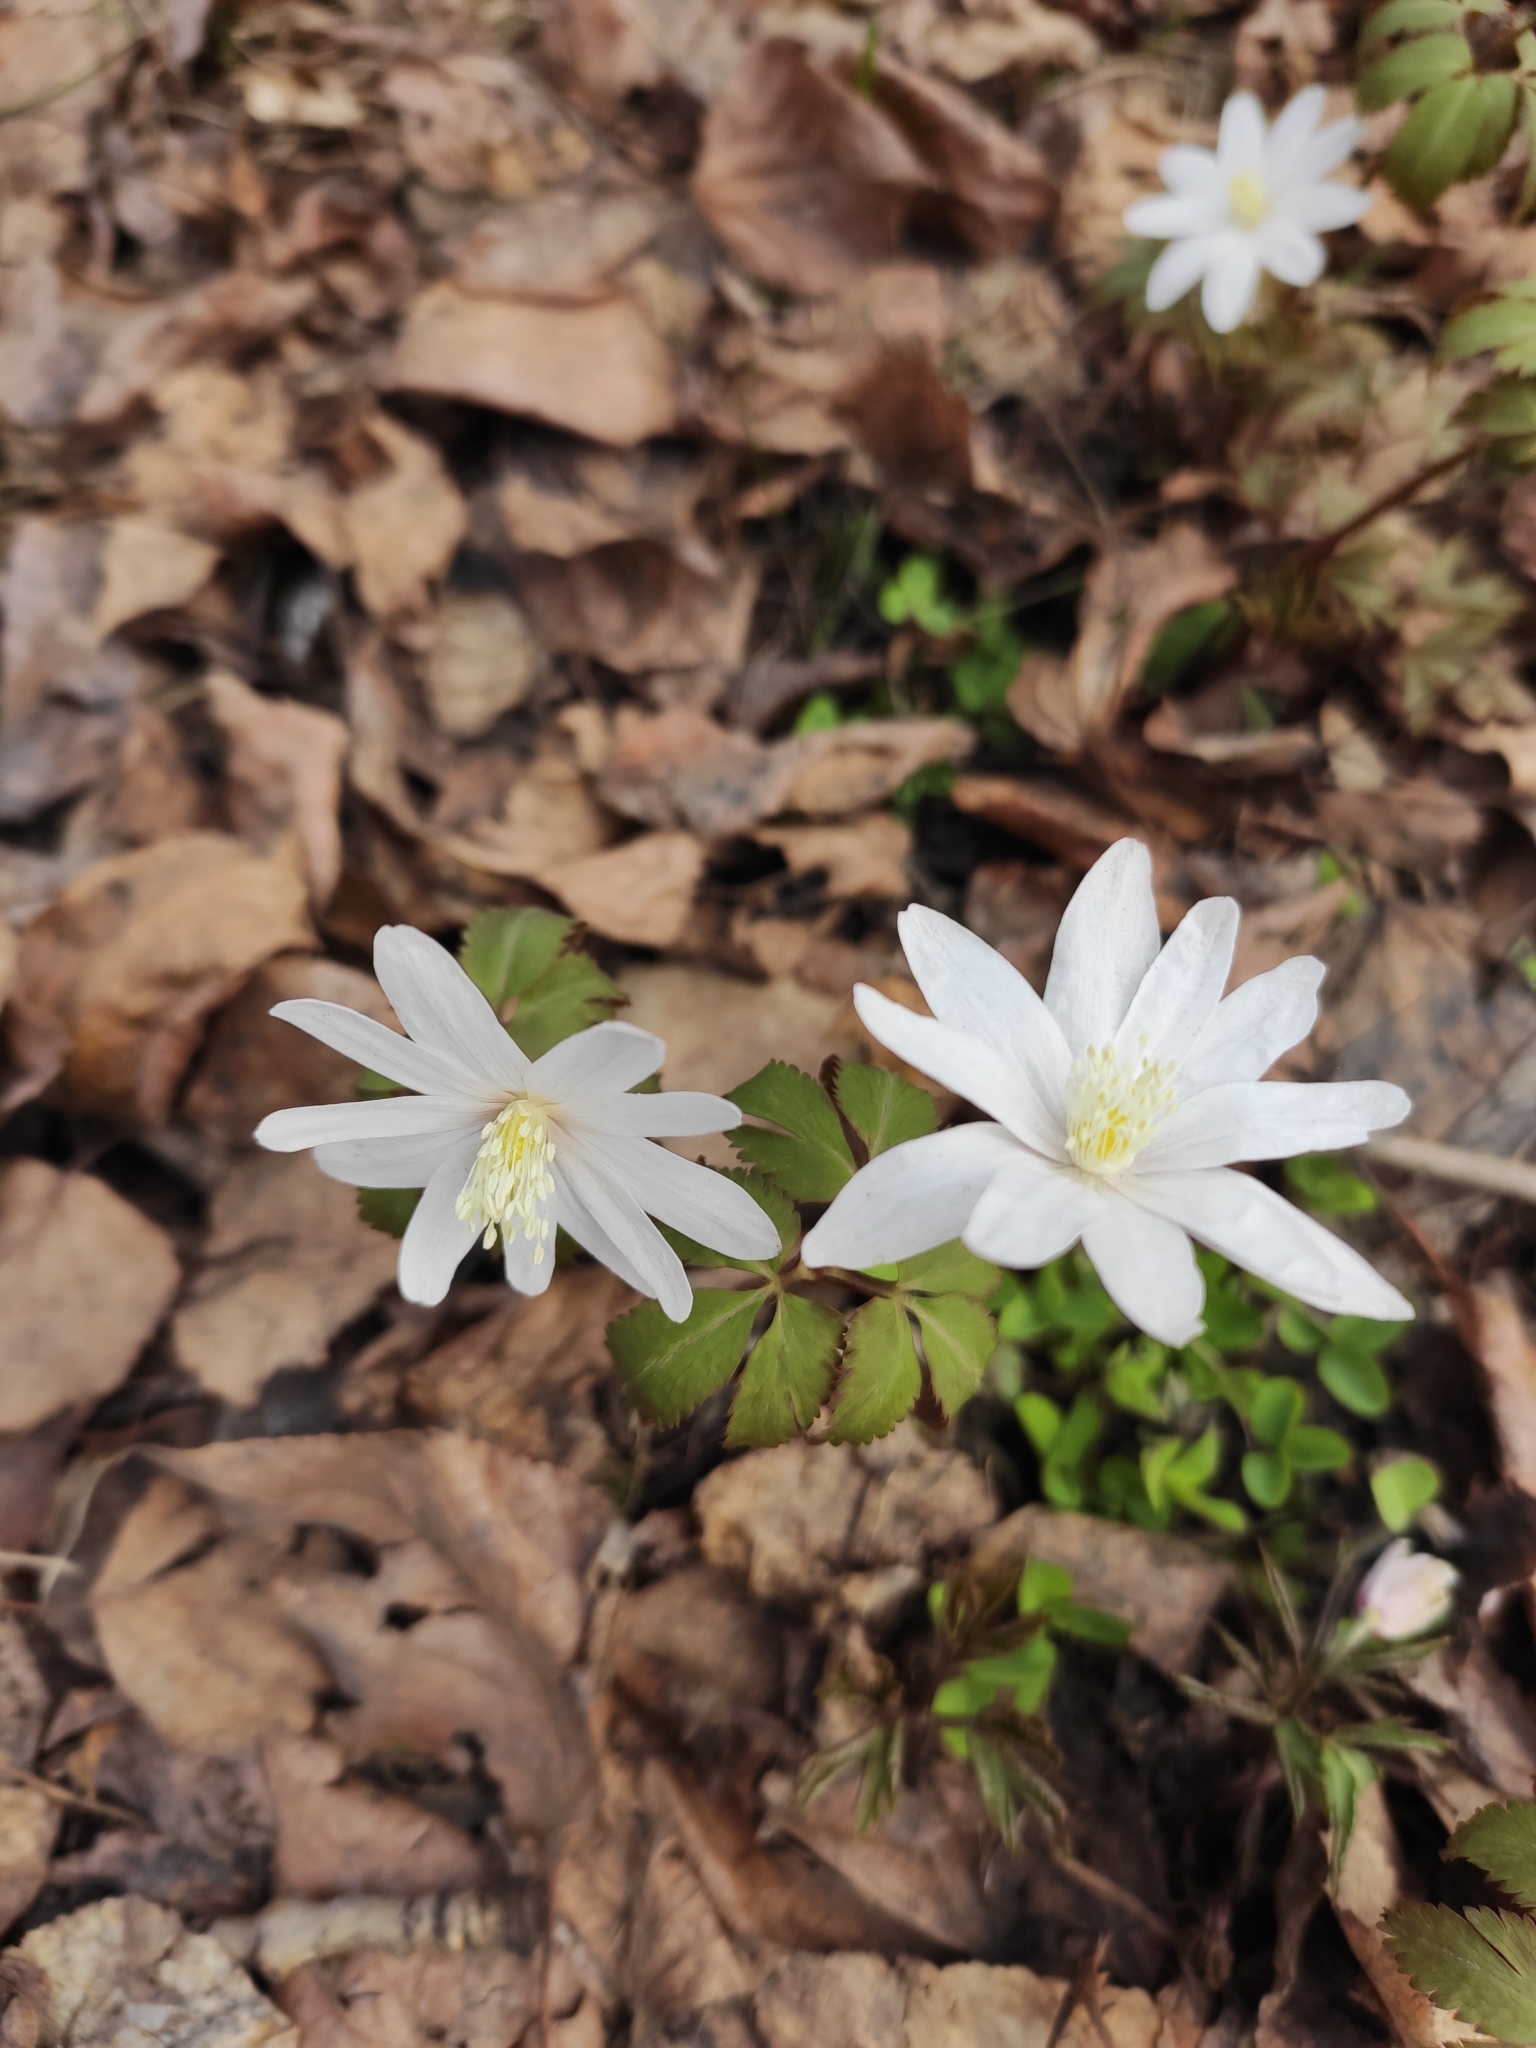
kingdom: Plantae
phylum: Tracheophyta
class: Magnoliopsida
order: Ranunculales
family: Ranunculaceae
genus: Anemone
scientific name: Anemone altaica
